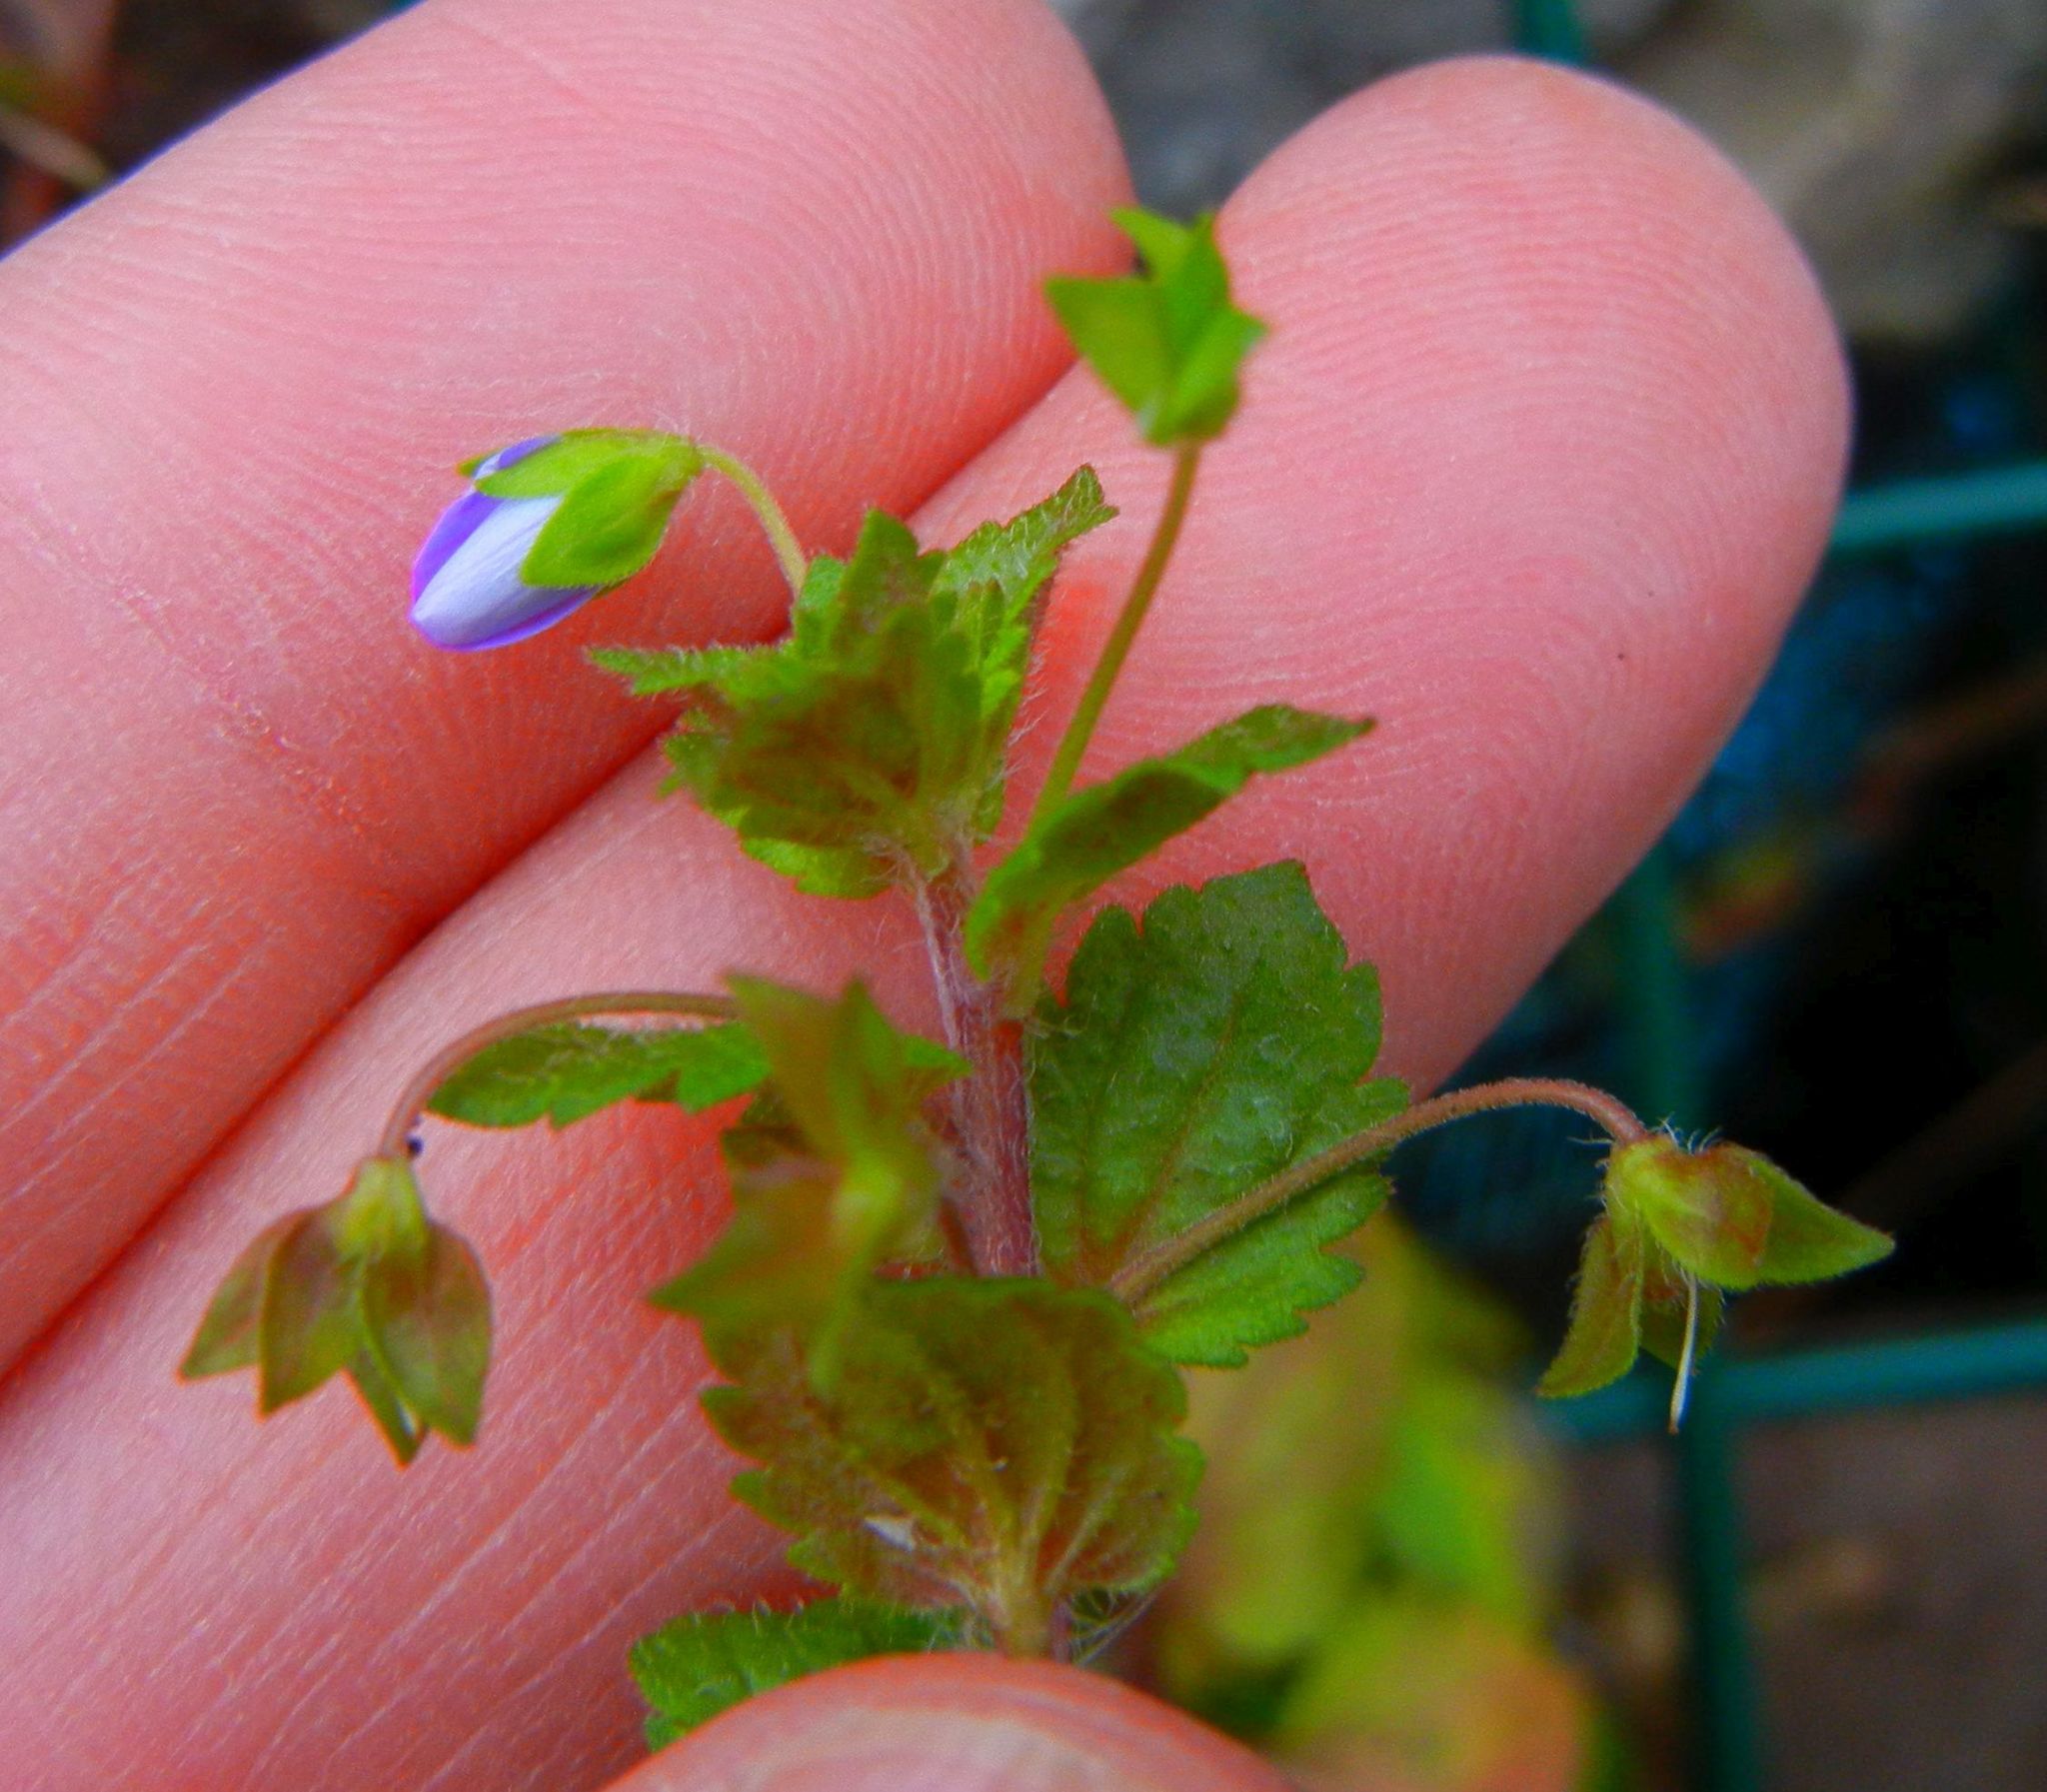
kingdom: Plantae
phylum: Tracheophyta
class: Magnoliopsida
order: Lamiales
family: Plantaginaceae
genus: Veronica
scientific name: Veronica persica
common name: Common field-speedwell
